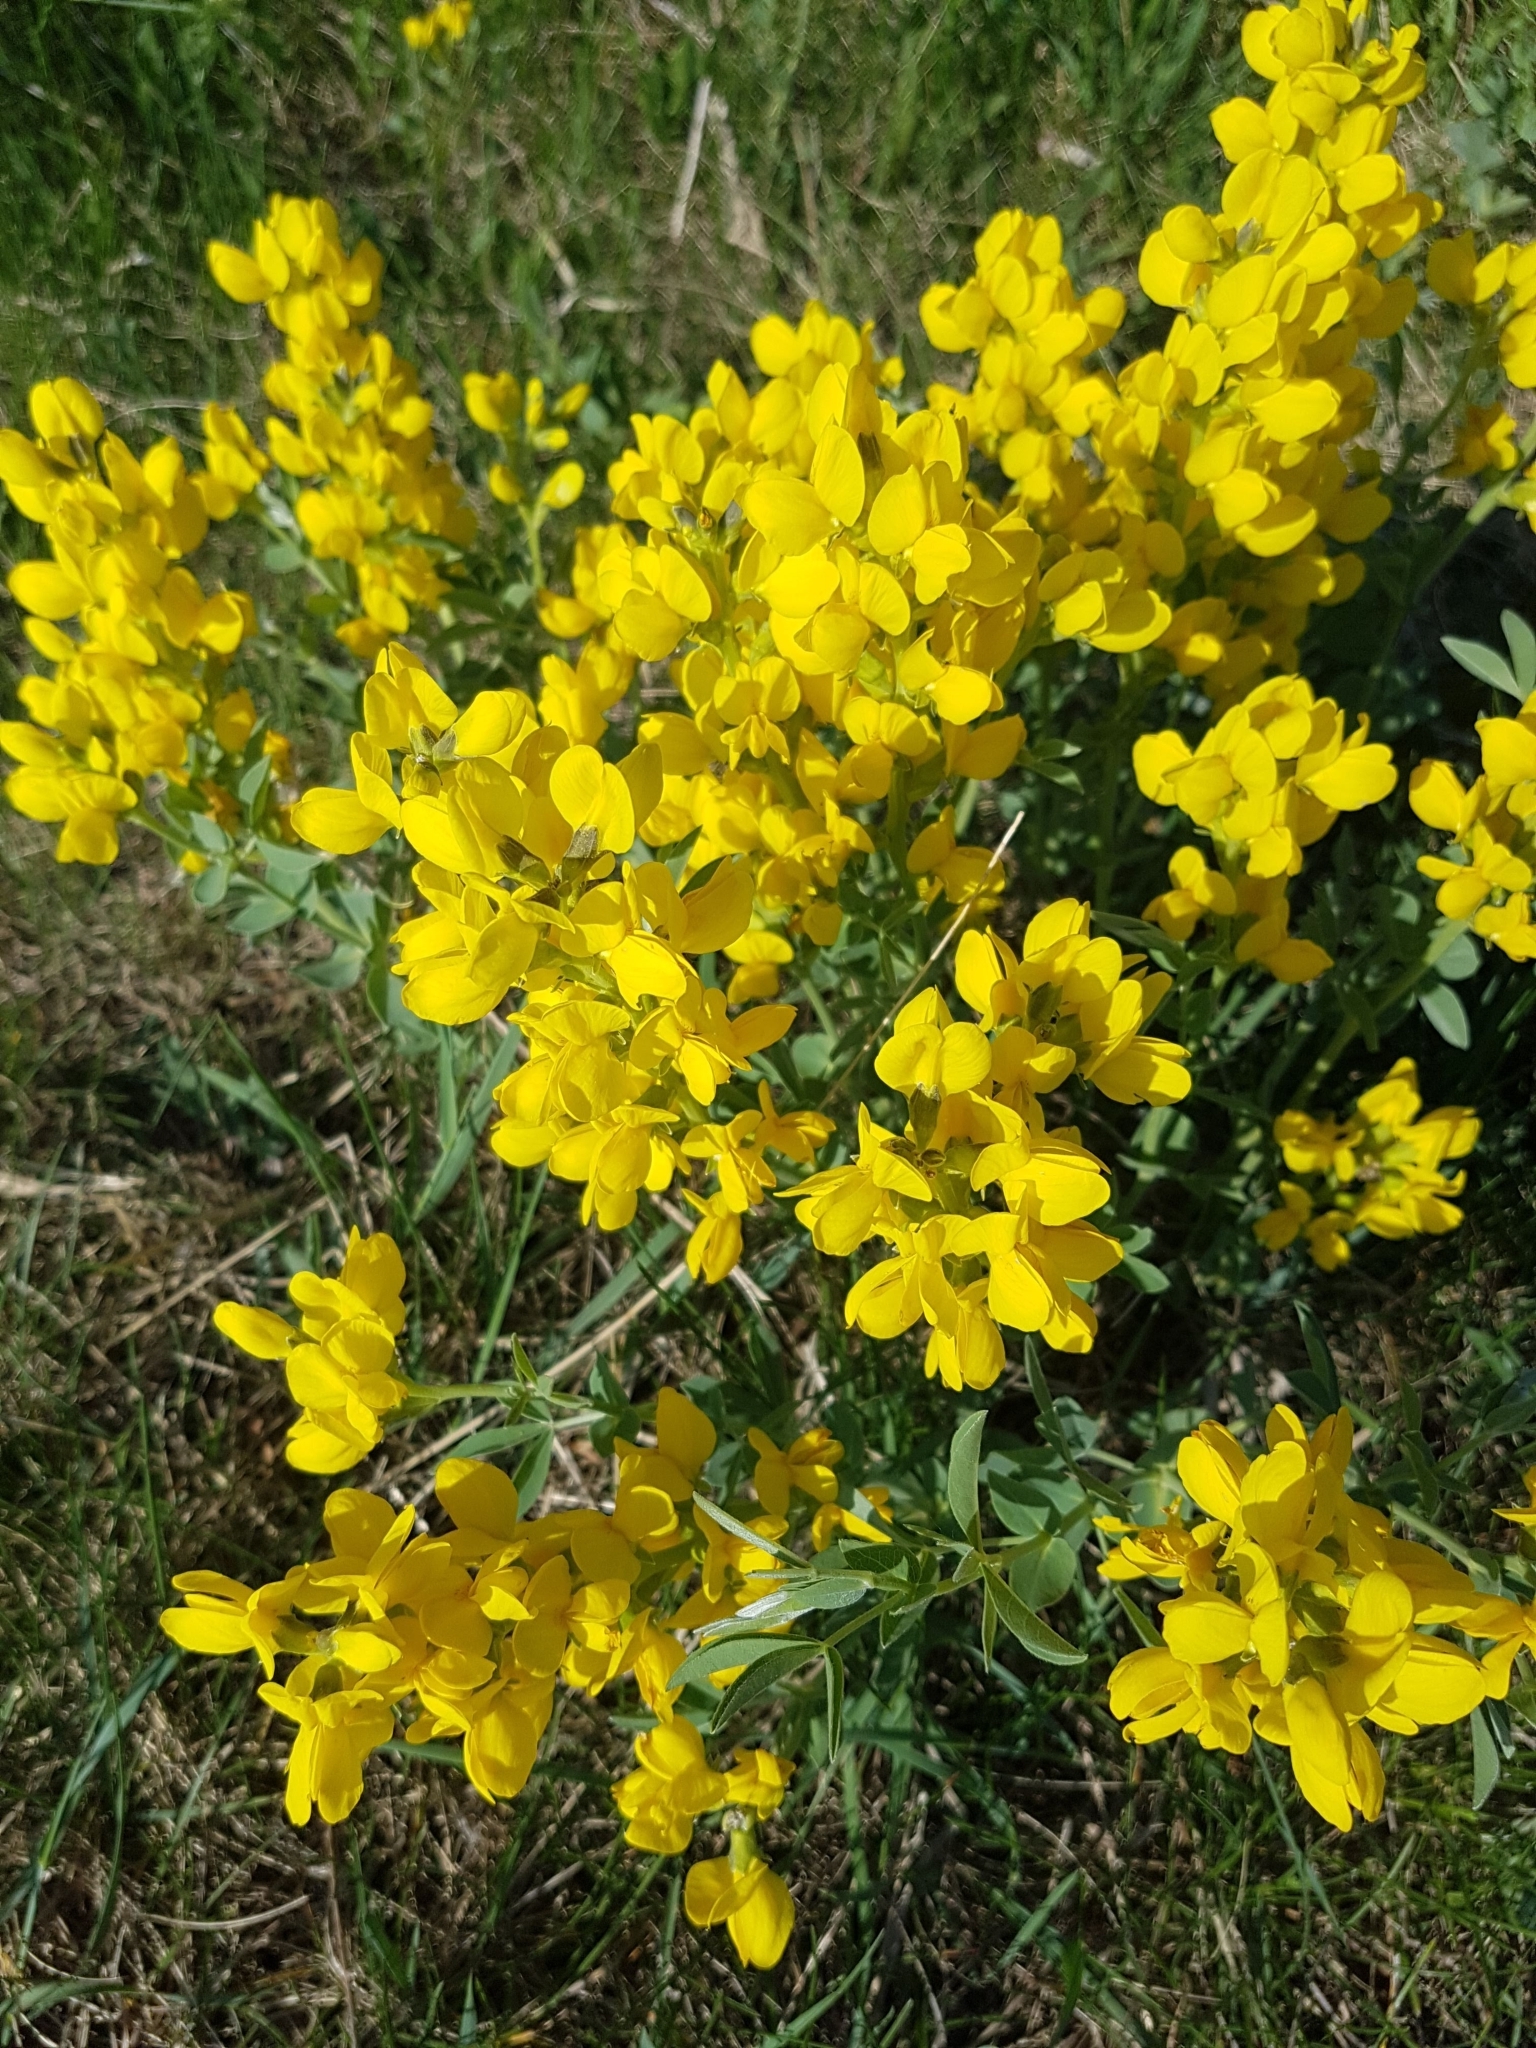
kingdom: Plantae
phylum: Tracheophyta
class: Magnoliopsida
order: Fabales
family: Fabaceae
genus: Thermopsis
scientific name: Thermopsis rhombifolia
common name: Circle-pod-pea
